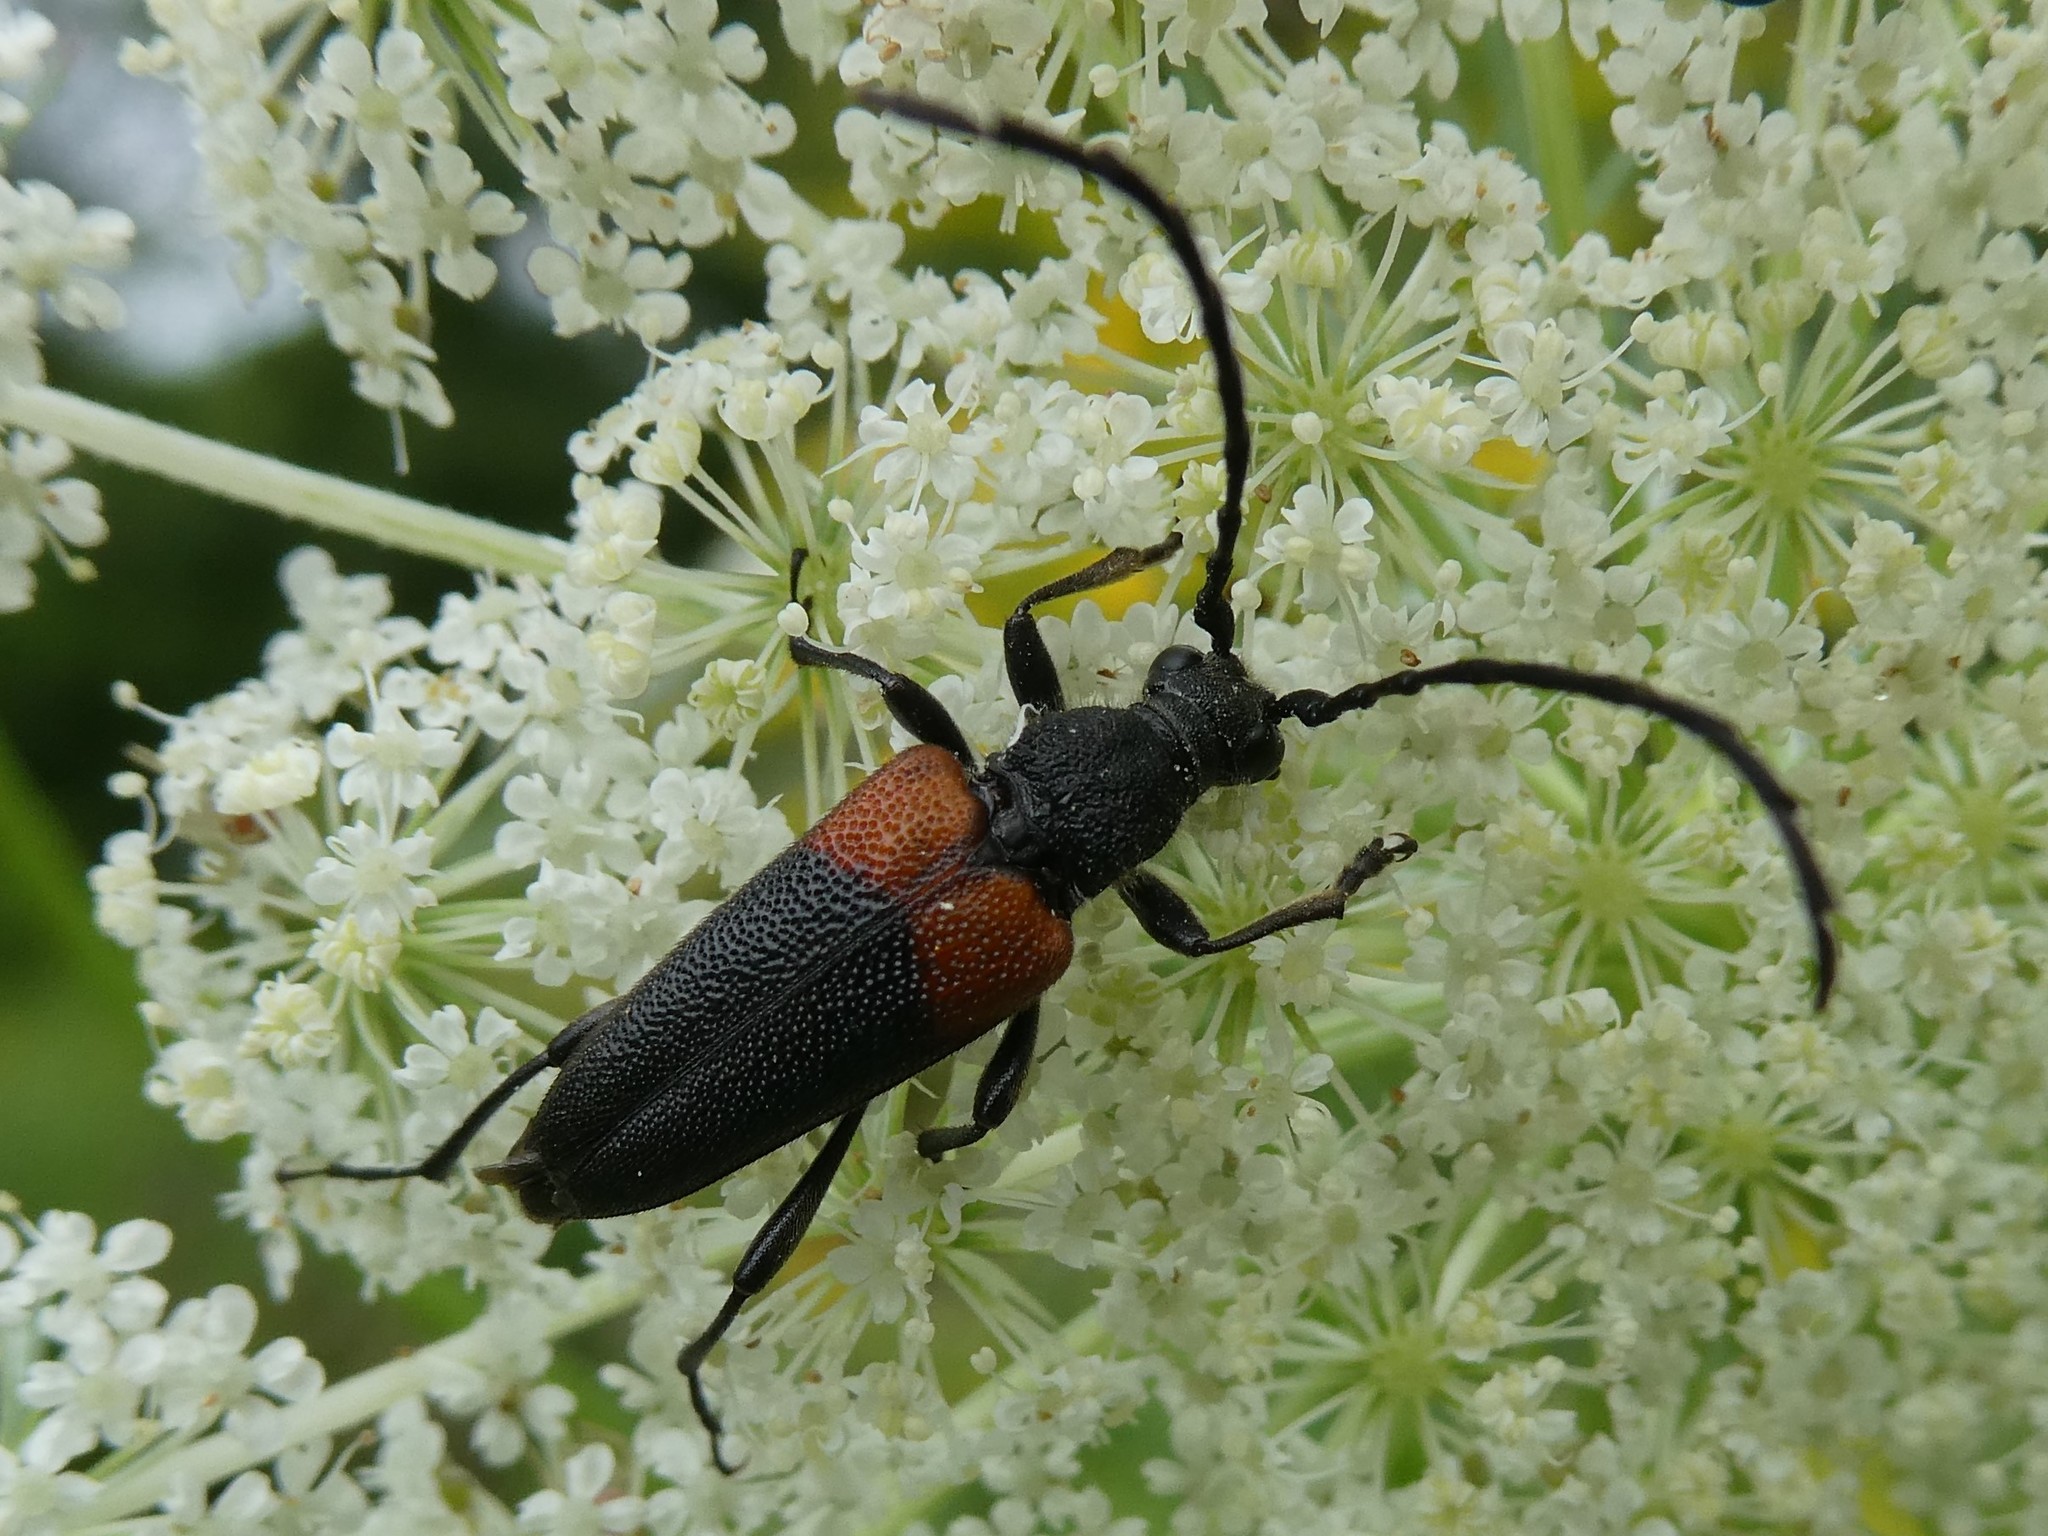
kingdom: Animalia
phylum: Arthropoda
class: Insecta
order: Coleoptera
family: Cerambycidae
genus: Stictoleptura
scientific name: Stictoleptura canadensis
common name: Red-shouldered pine borer
